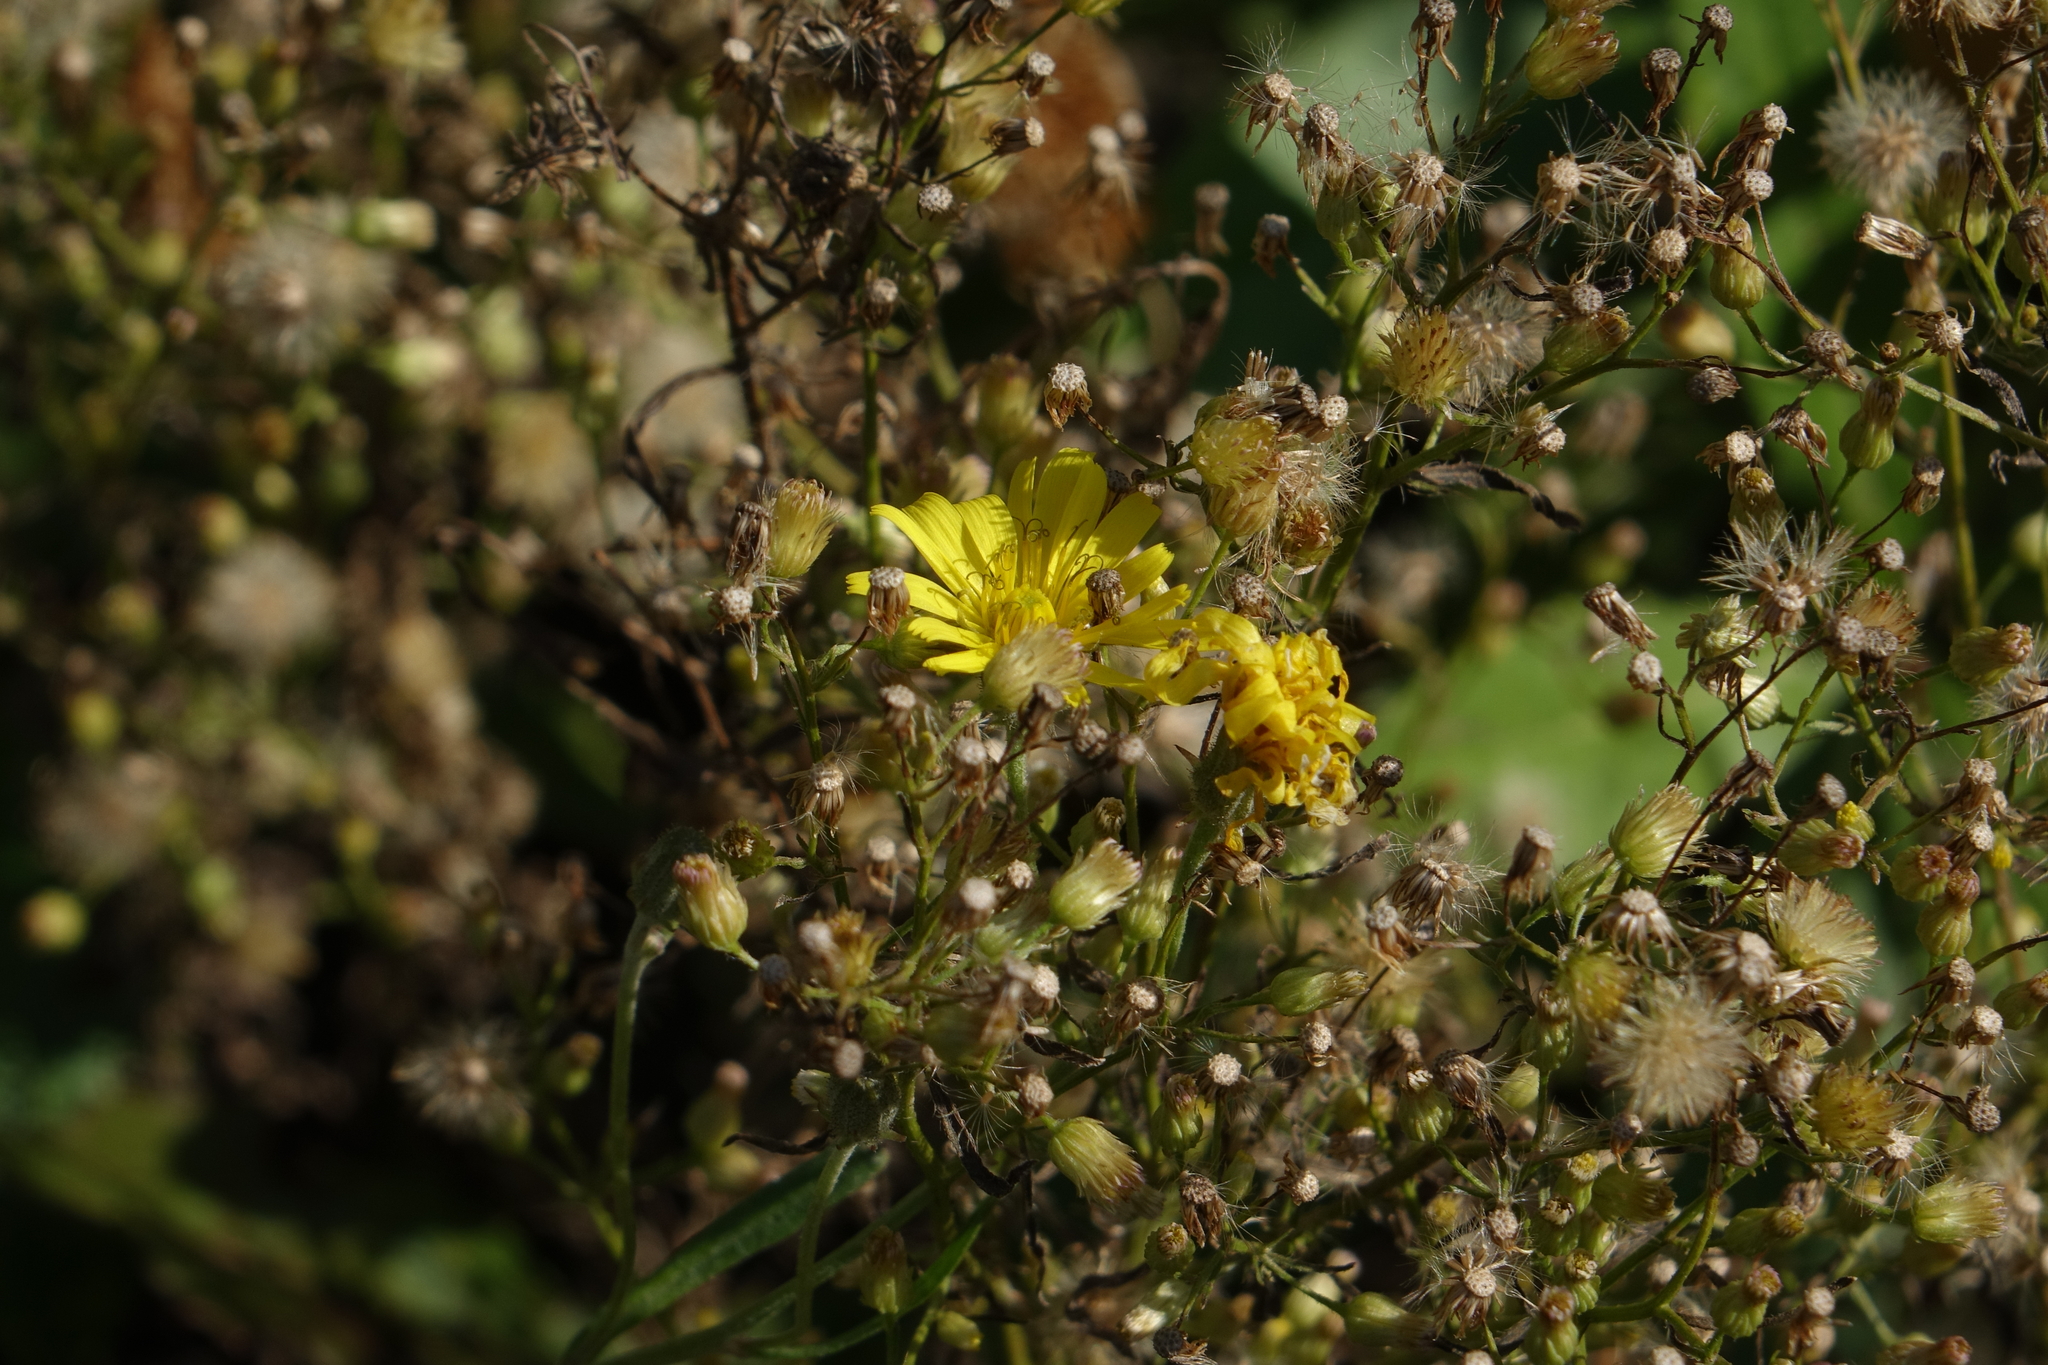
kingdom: Plantae
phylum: Tracheophyta
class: Magnoliopsida
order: Asterales
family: Asteraceae
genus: Erigeron
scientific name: Erigeron canadensis
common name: Canadian fleabane
